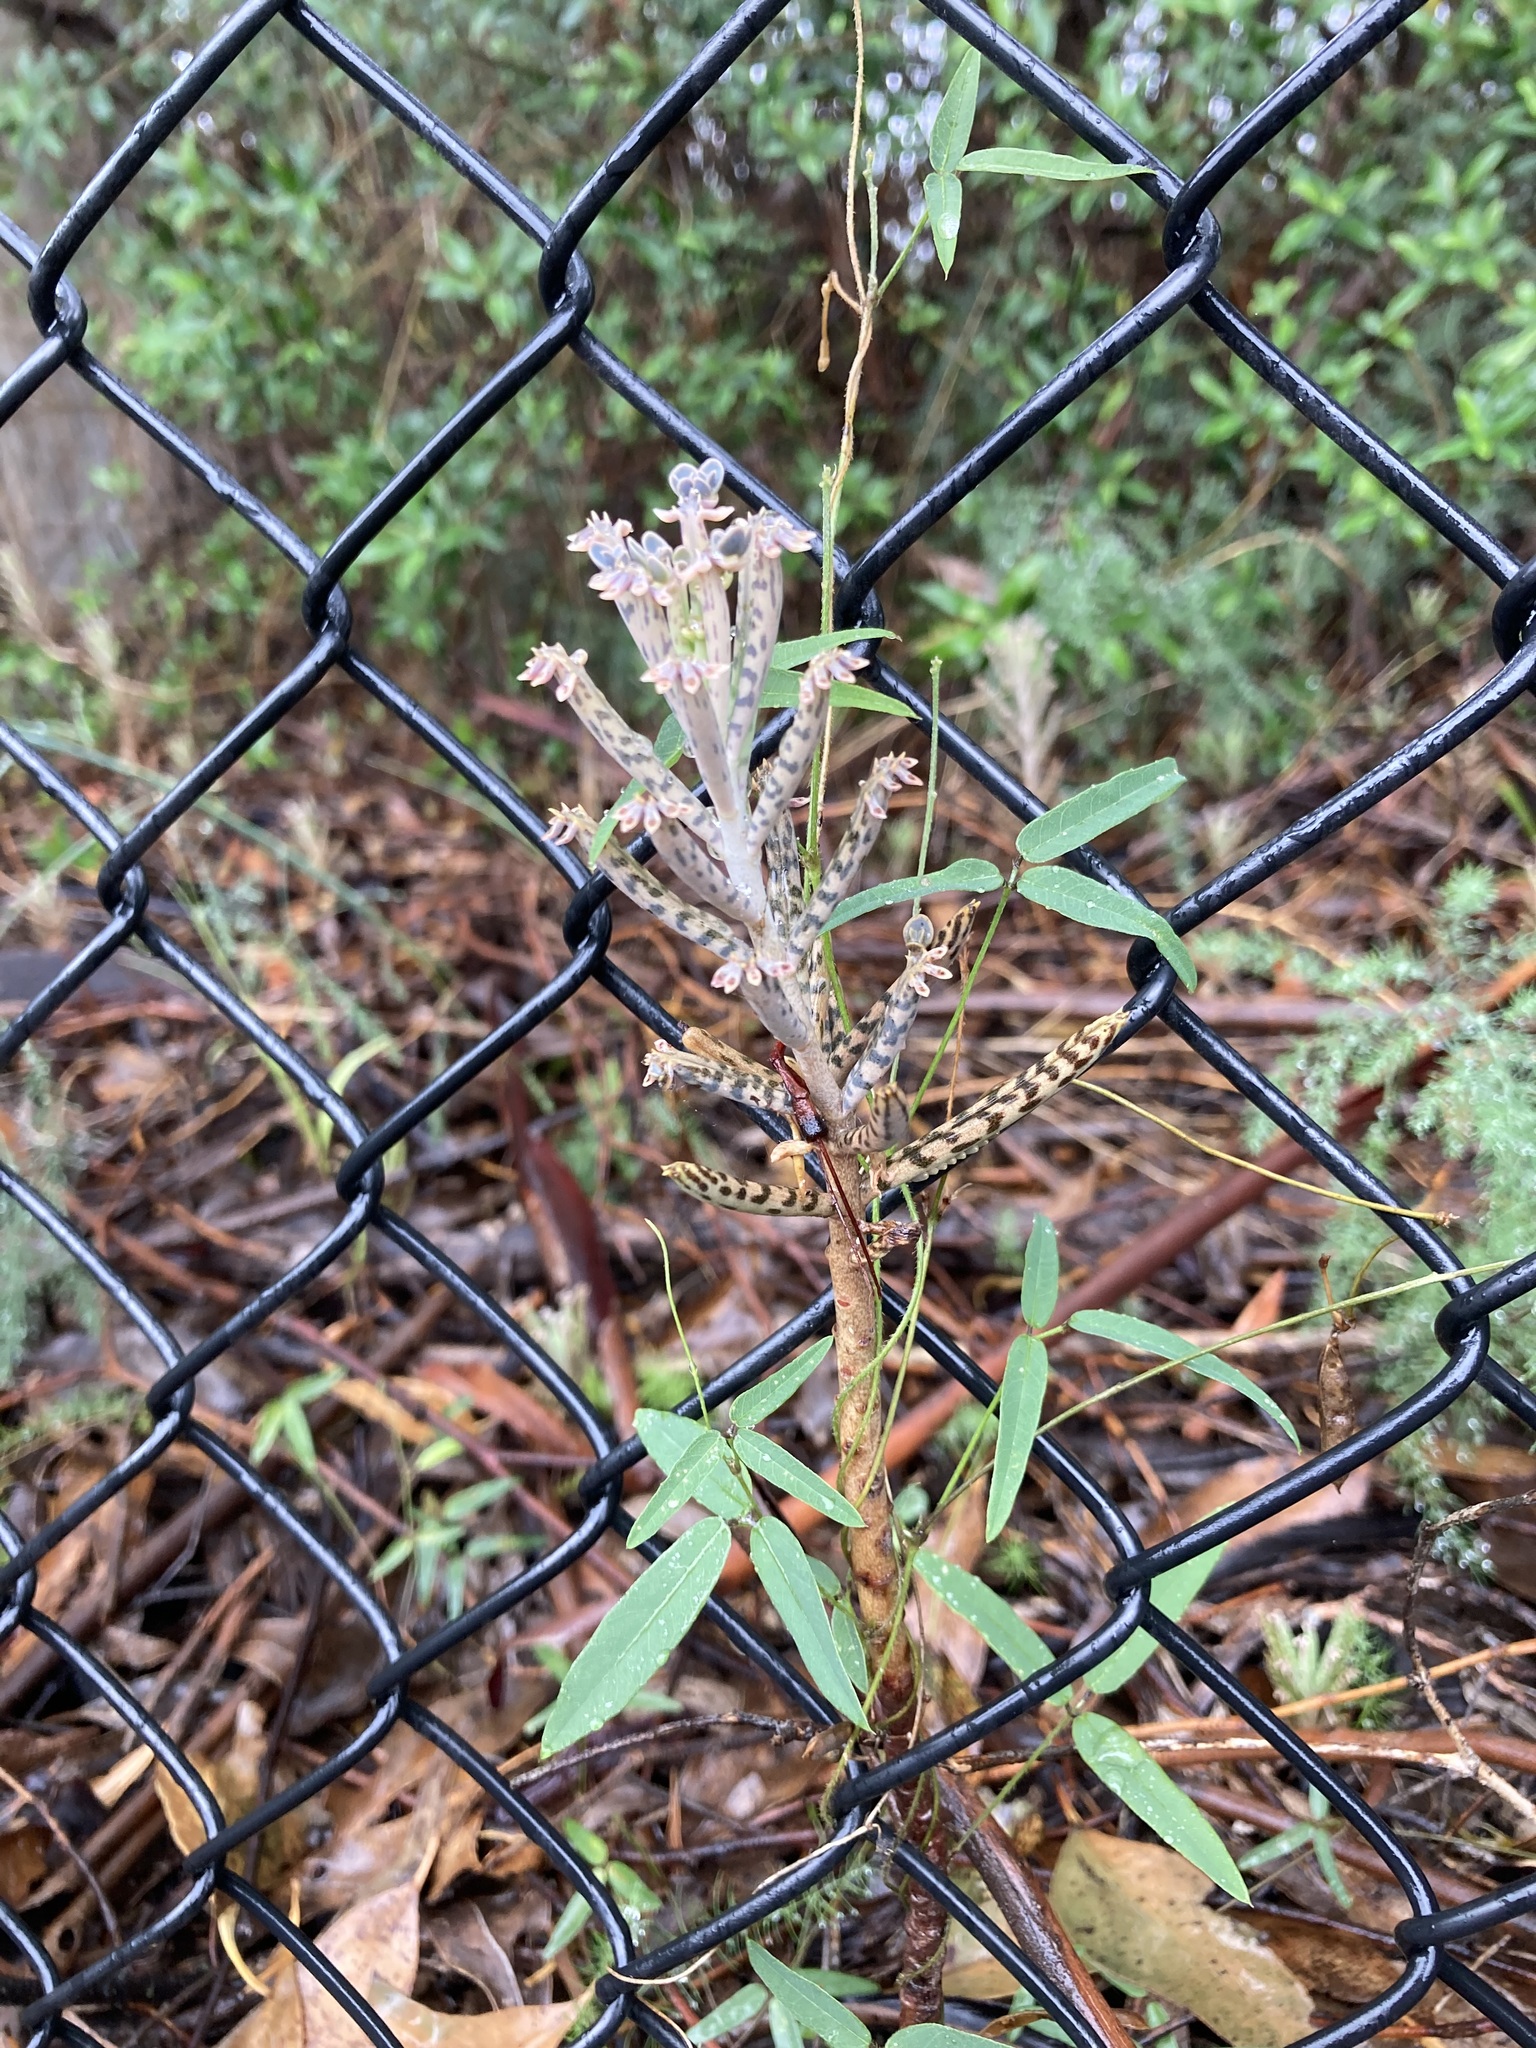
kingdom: Plantae
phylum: Tracheophyta
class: Magnoliopsida
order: Saxifragales
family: Crassulaceae
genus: Kalanchoe
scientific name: Kalanchoe delagoensis
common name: Chandelier plant
